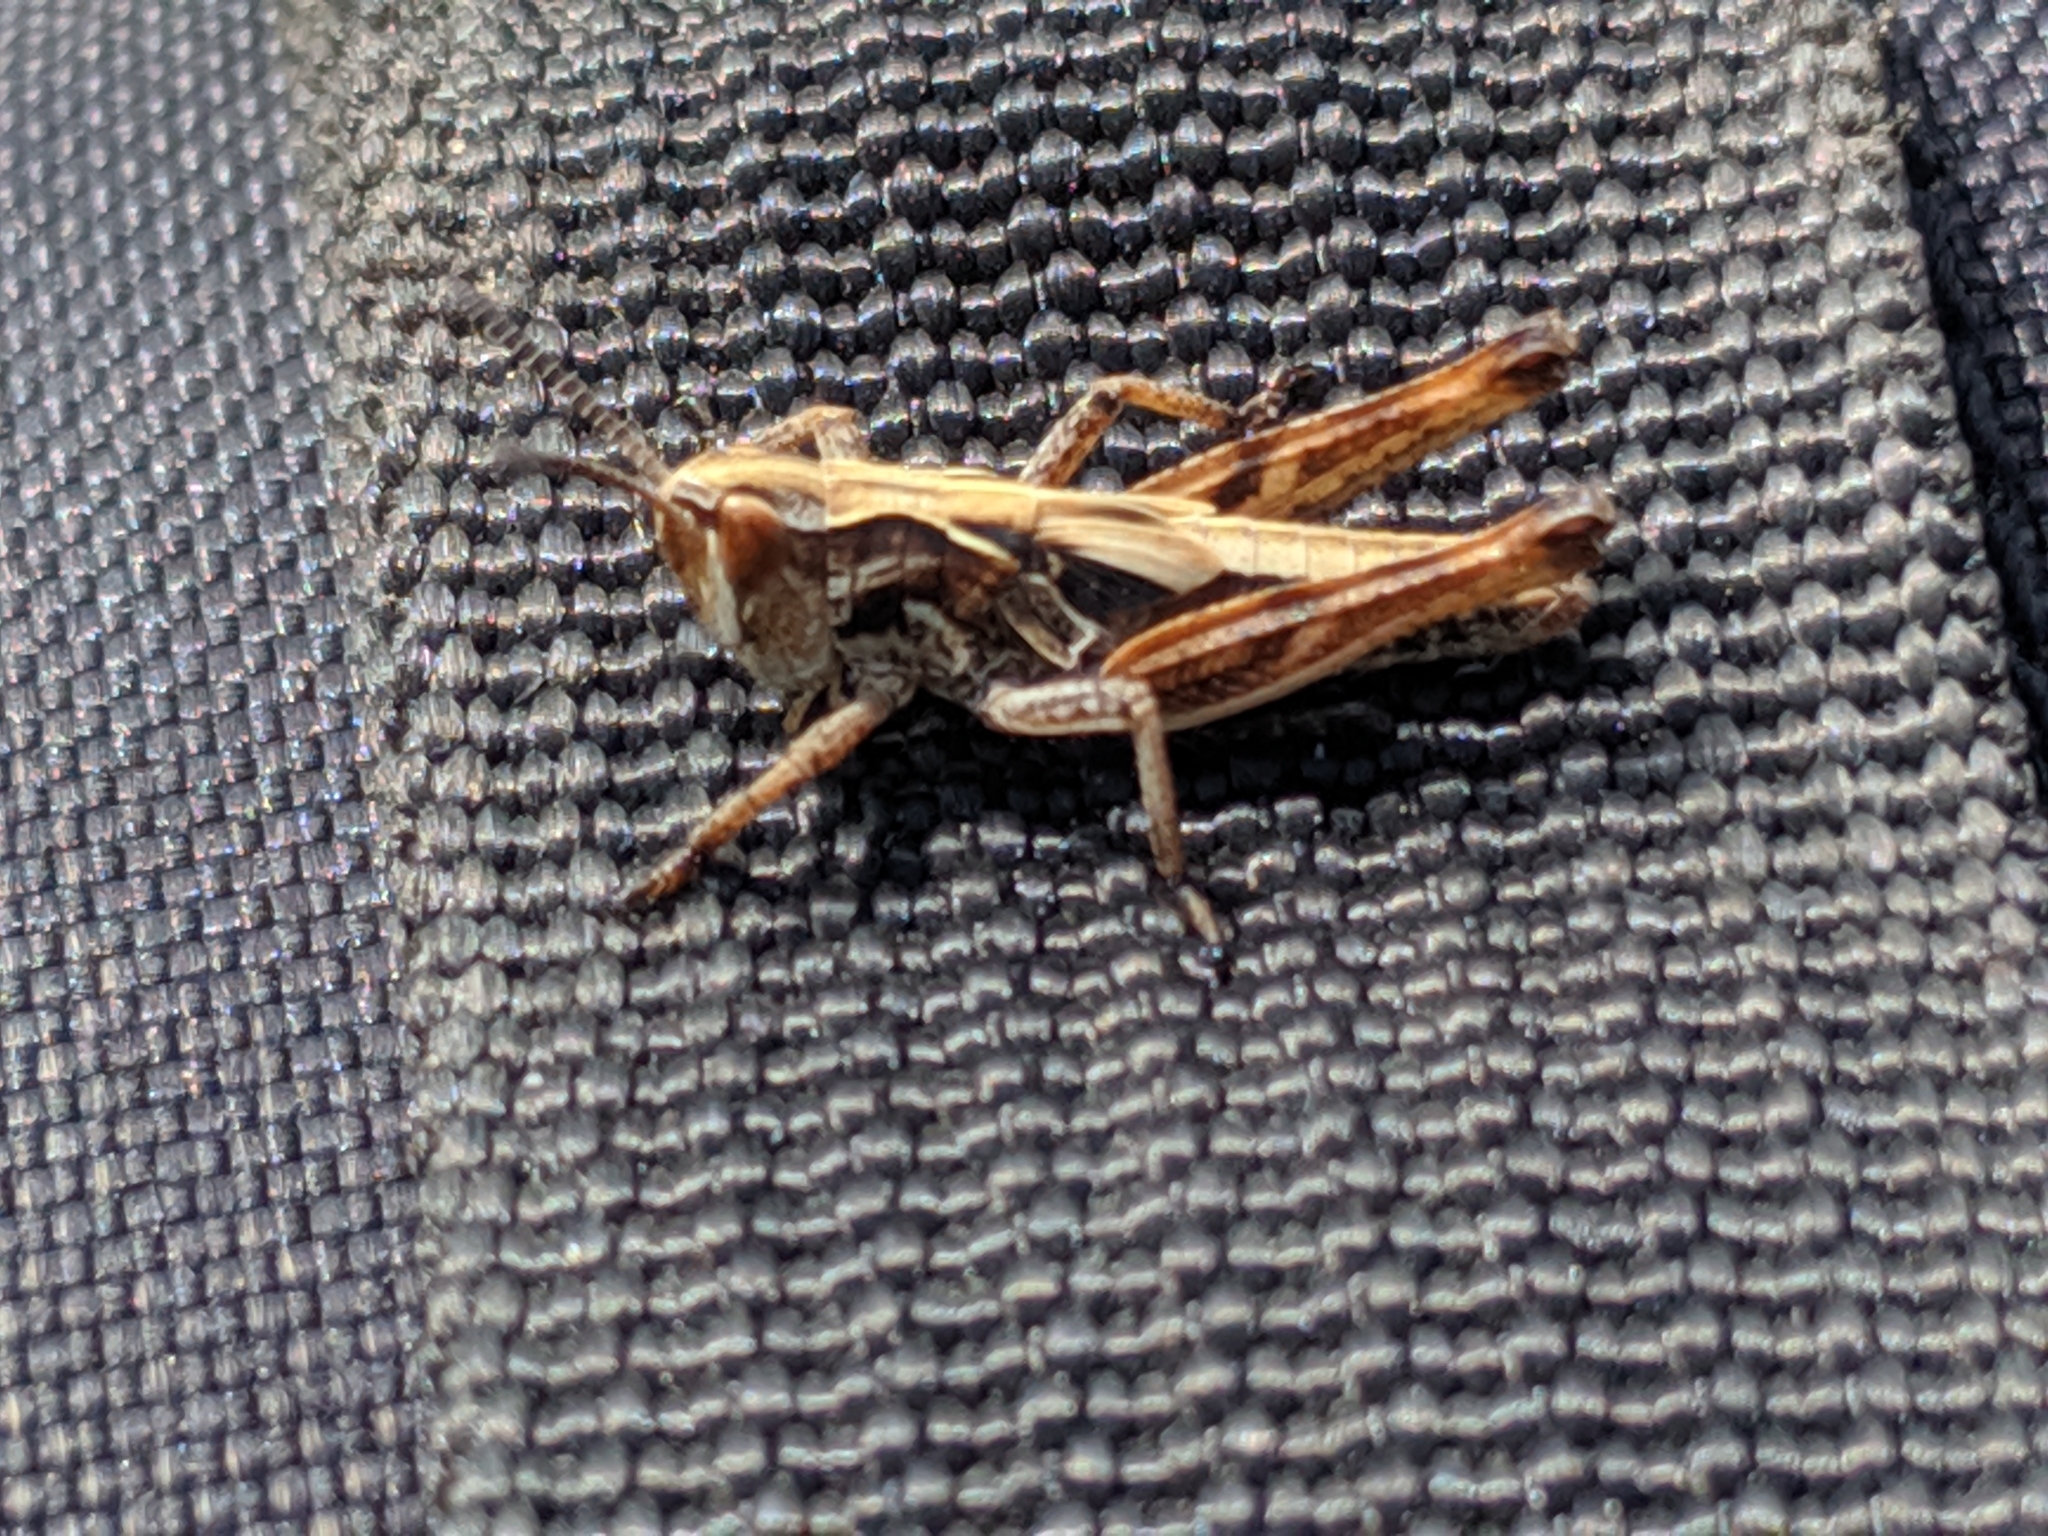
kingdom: Animalia
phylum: Arthropoda
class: Insecta
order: Orthoptera
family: Acrididae
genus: Aeropedellus
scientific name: Aeropedellus clavatus
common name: Clubhorned grasshopper
